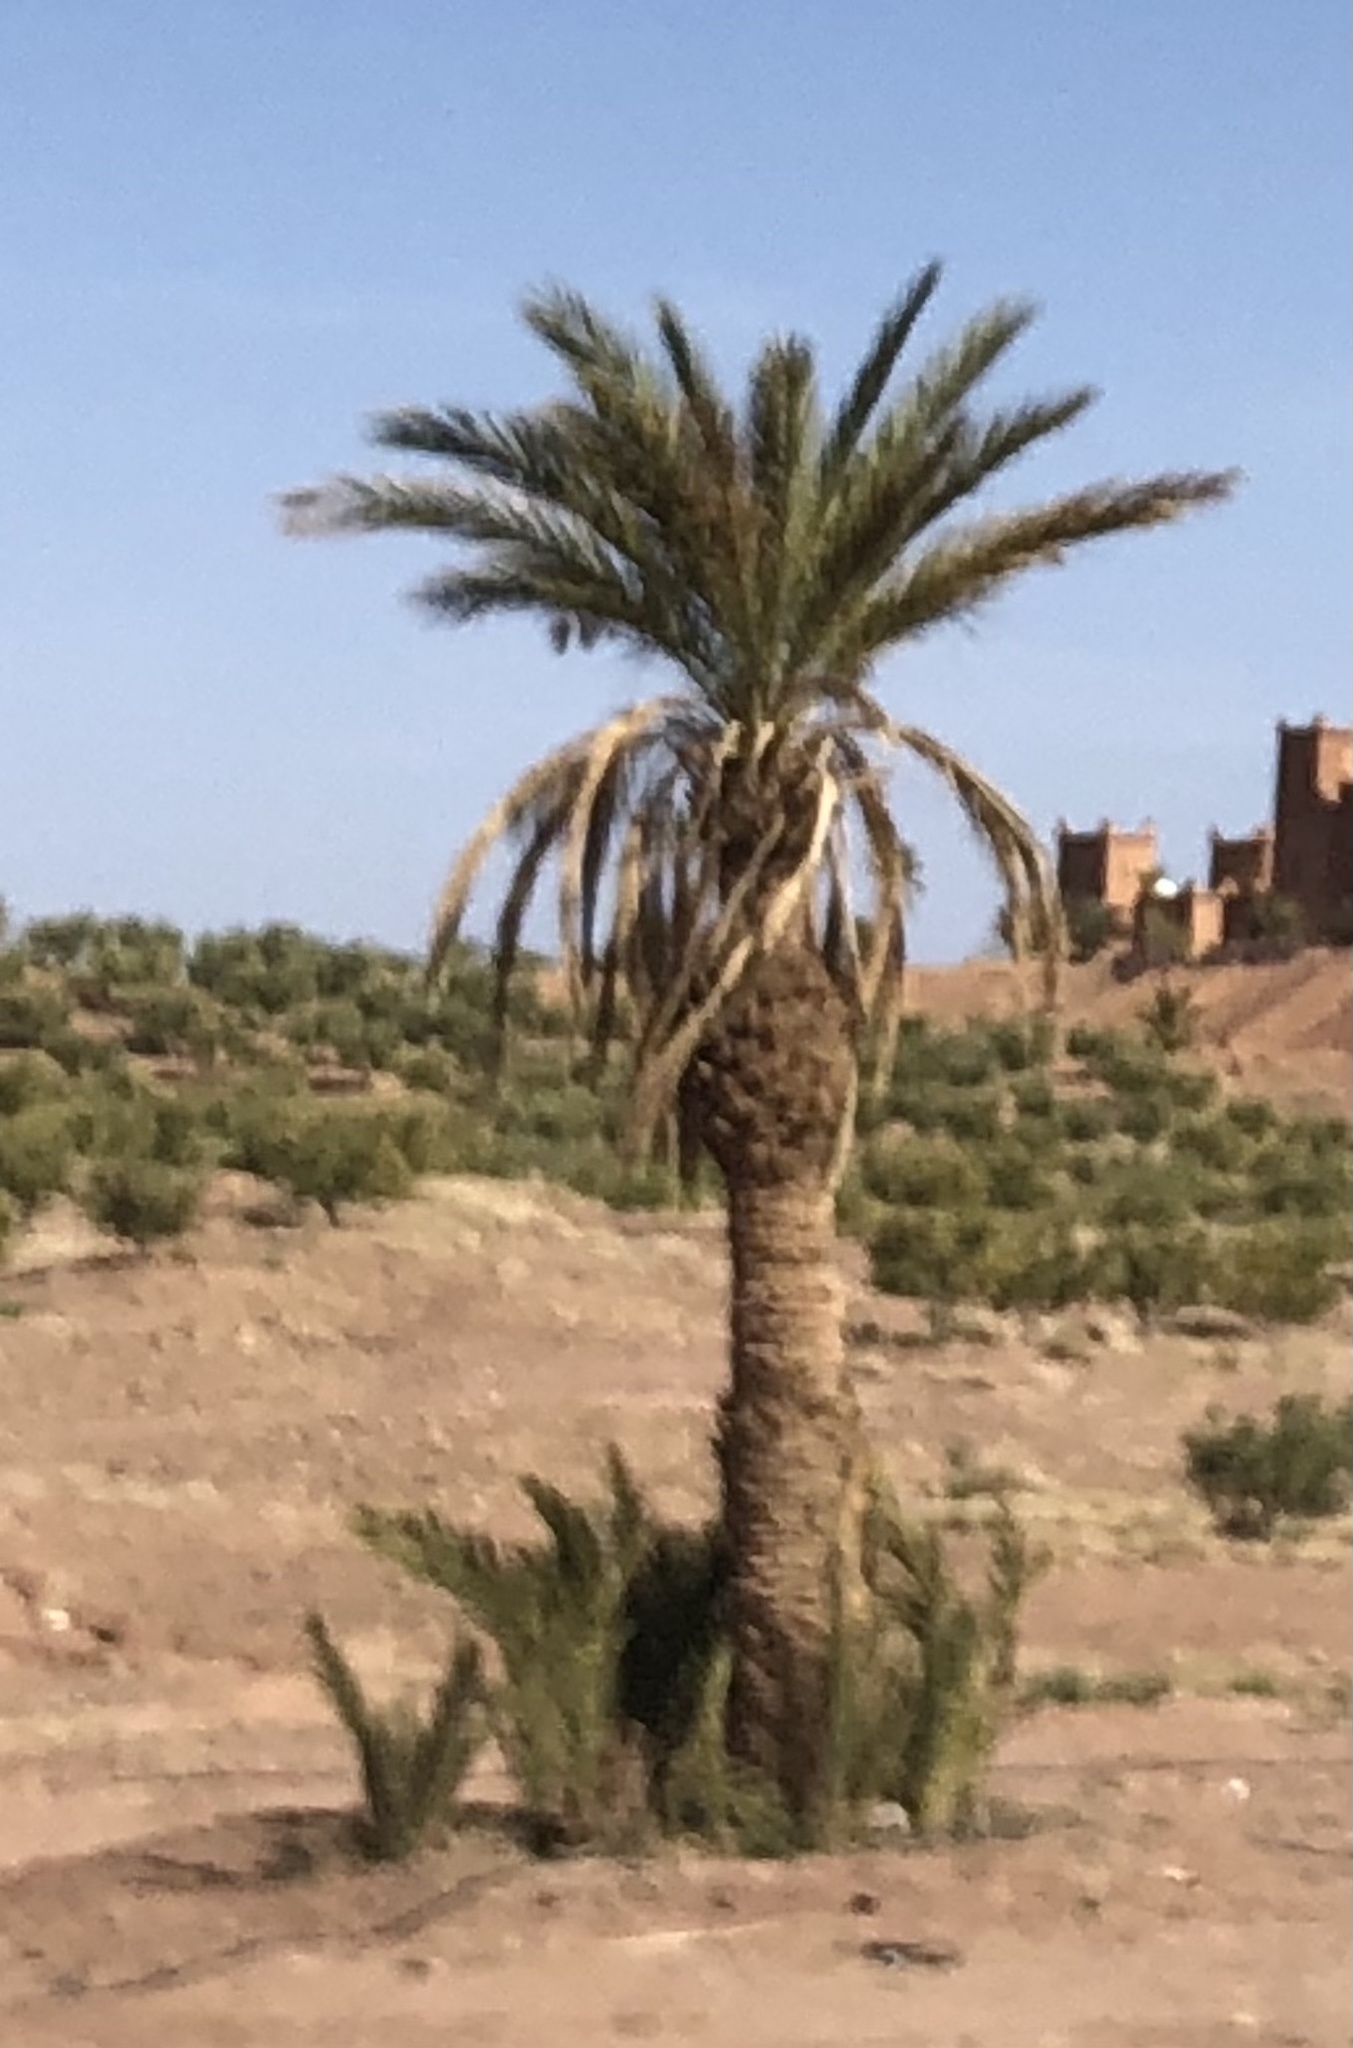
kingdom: Plantae
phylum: Tracheophyta
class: Liliopsida
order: Arecales
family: Arecaceae
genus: Phoenix
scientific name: Phoenix dactylifera
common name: Date palm
